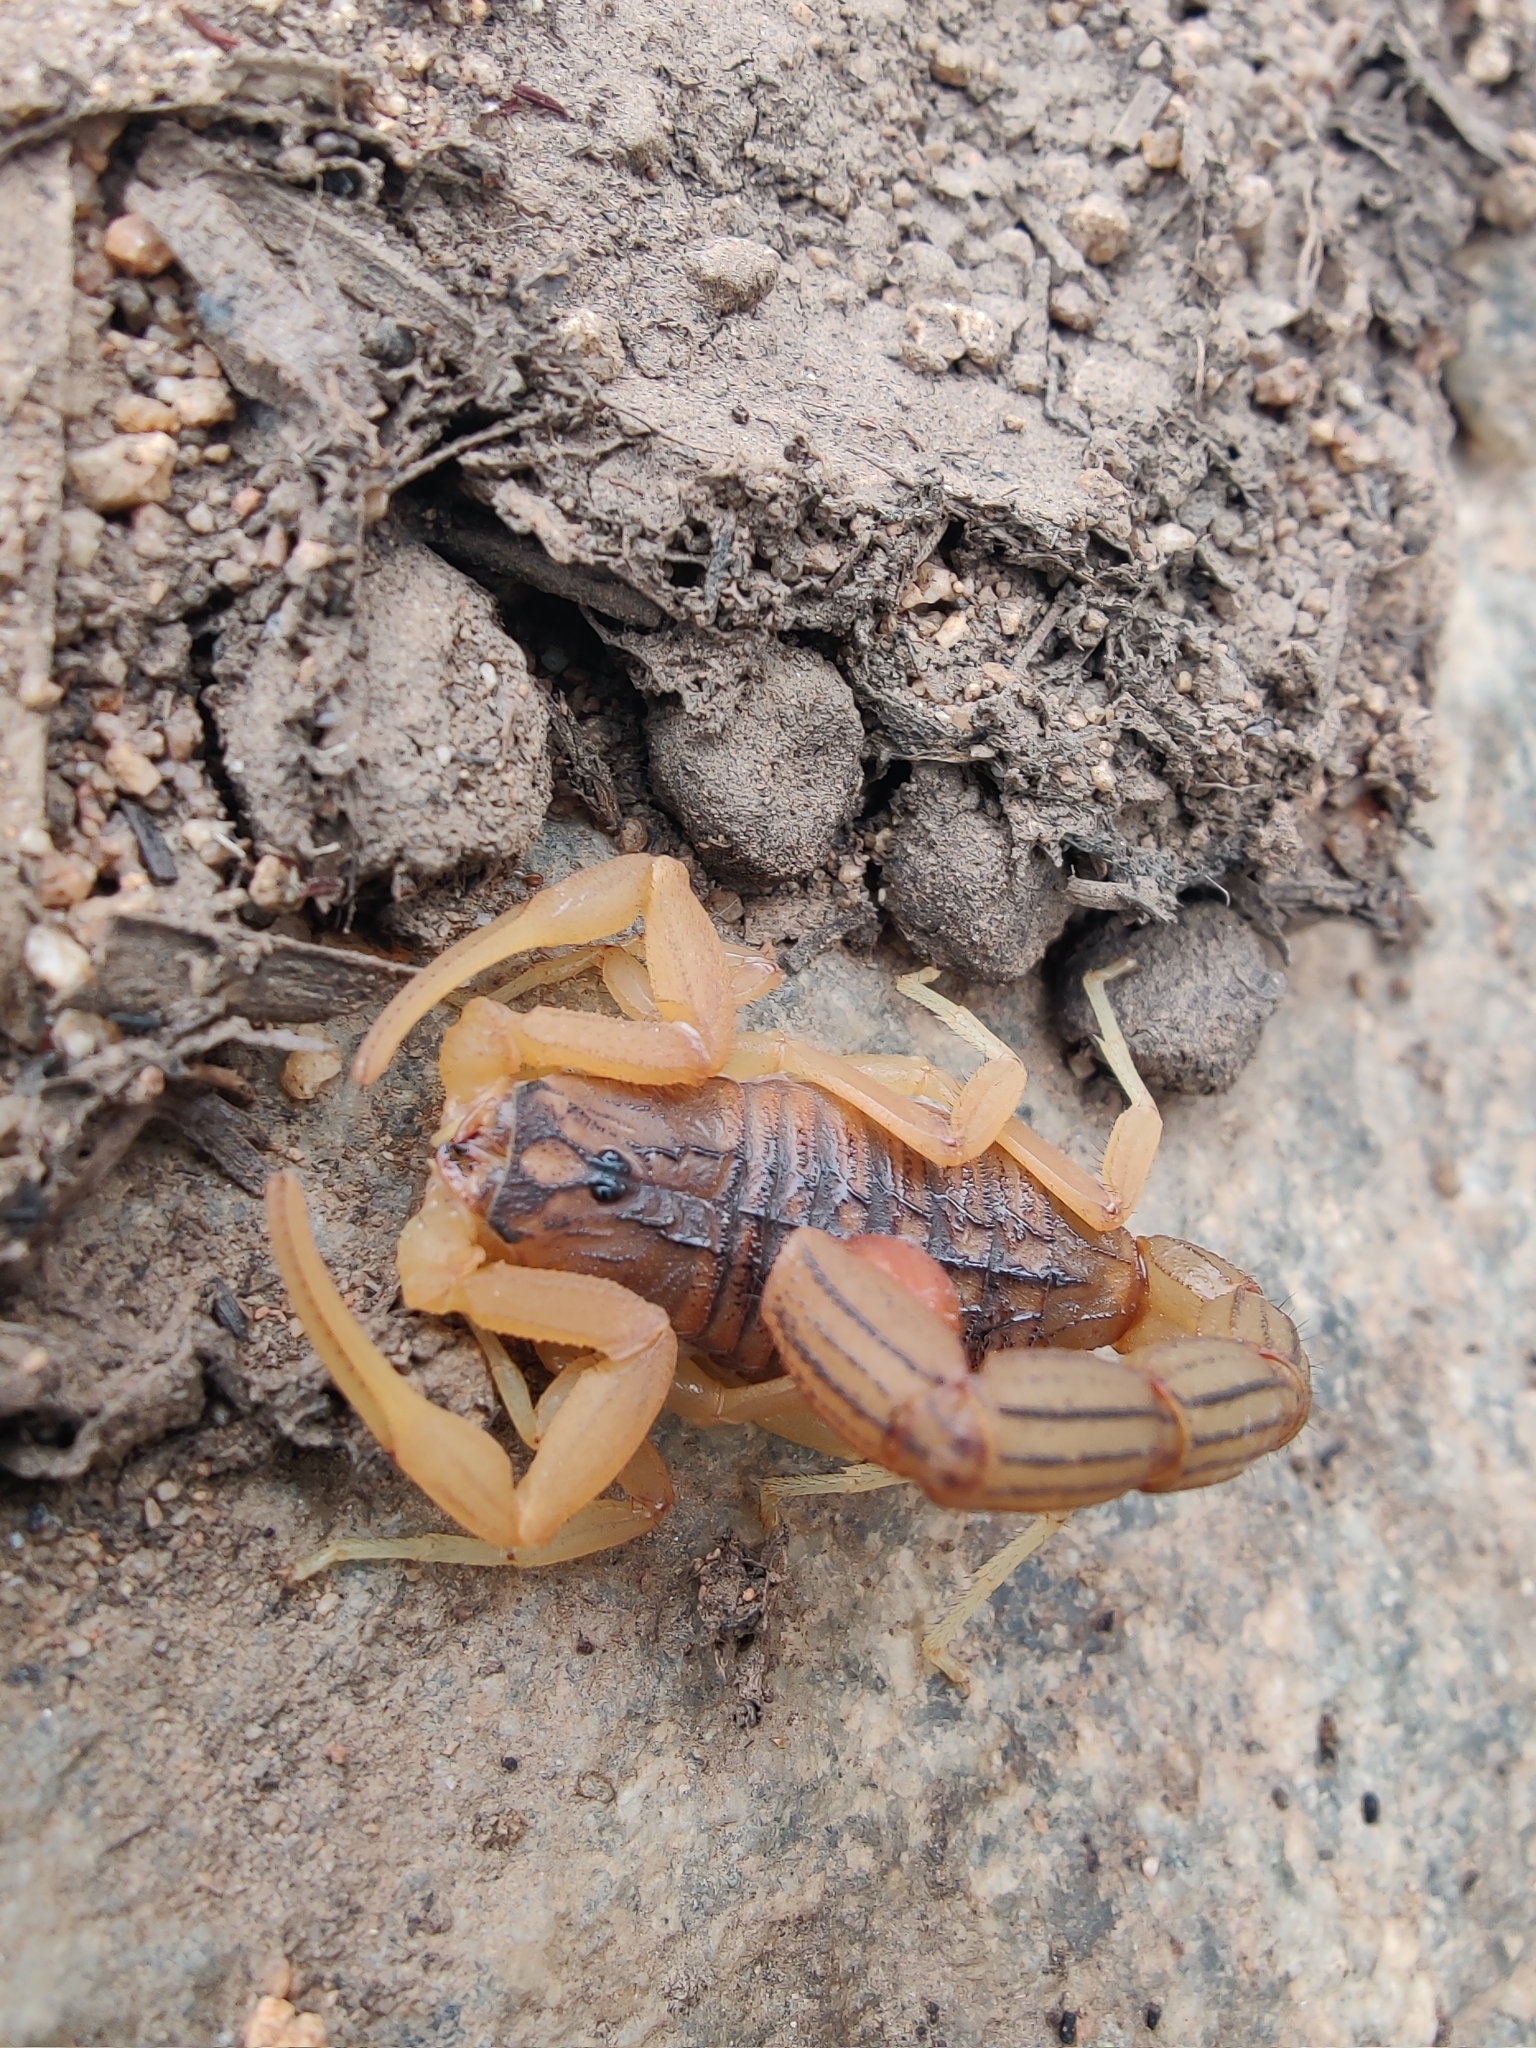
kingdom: Animalia
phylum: Arthropoda
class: Arachnida
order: Scorpiones
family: Buthidae
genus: Hottentotta
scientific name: Hottentotta tamulus
